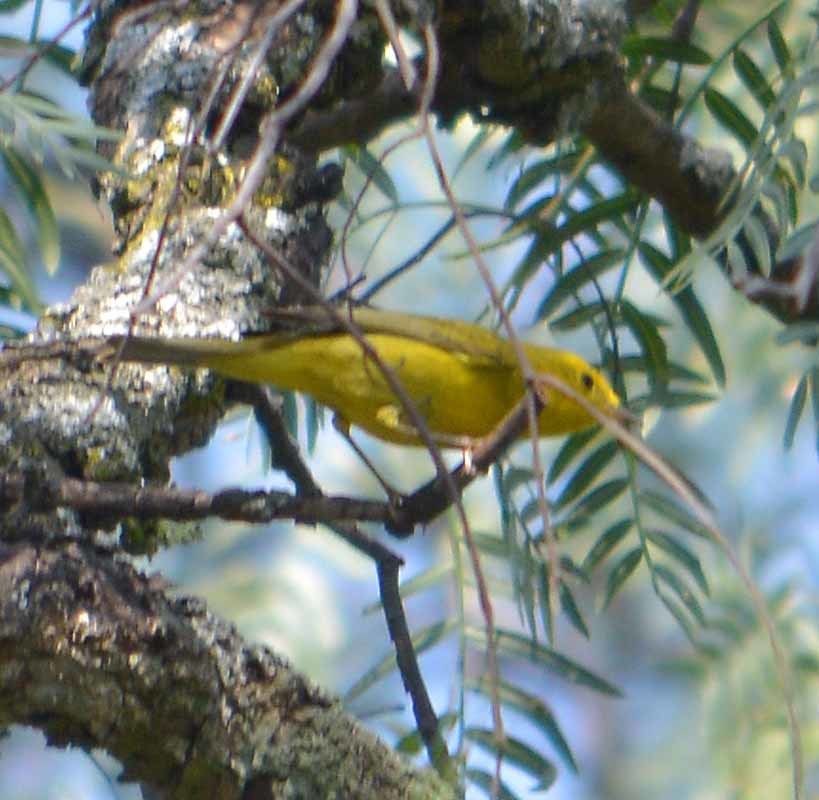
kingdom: Animalia
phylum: Chordata
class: Aves
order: Passeriformes
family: Parulidae
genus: Cardellina
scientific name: Cardellina pusilla
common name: Wilson's warbler
